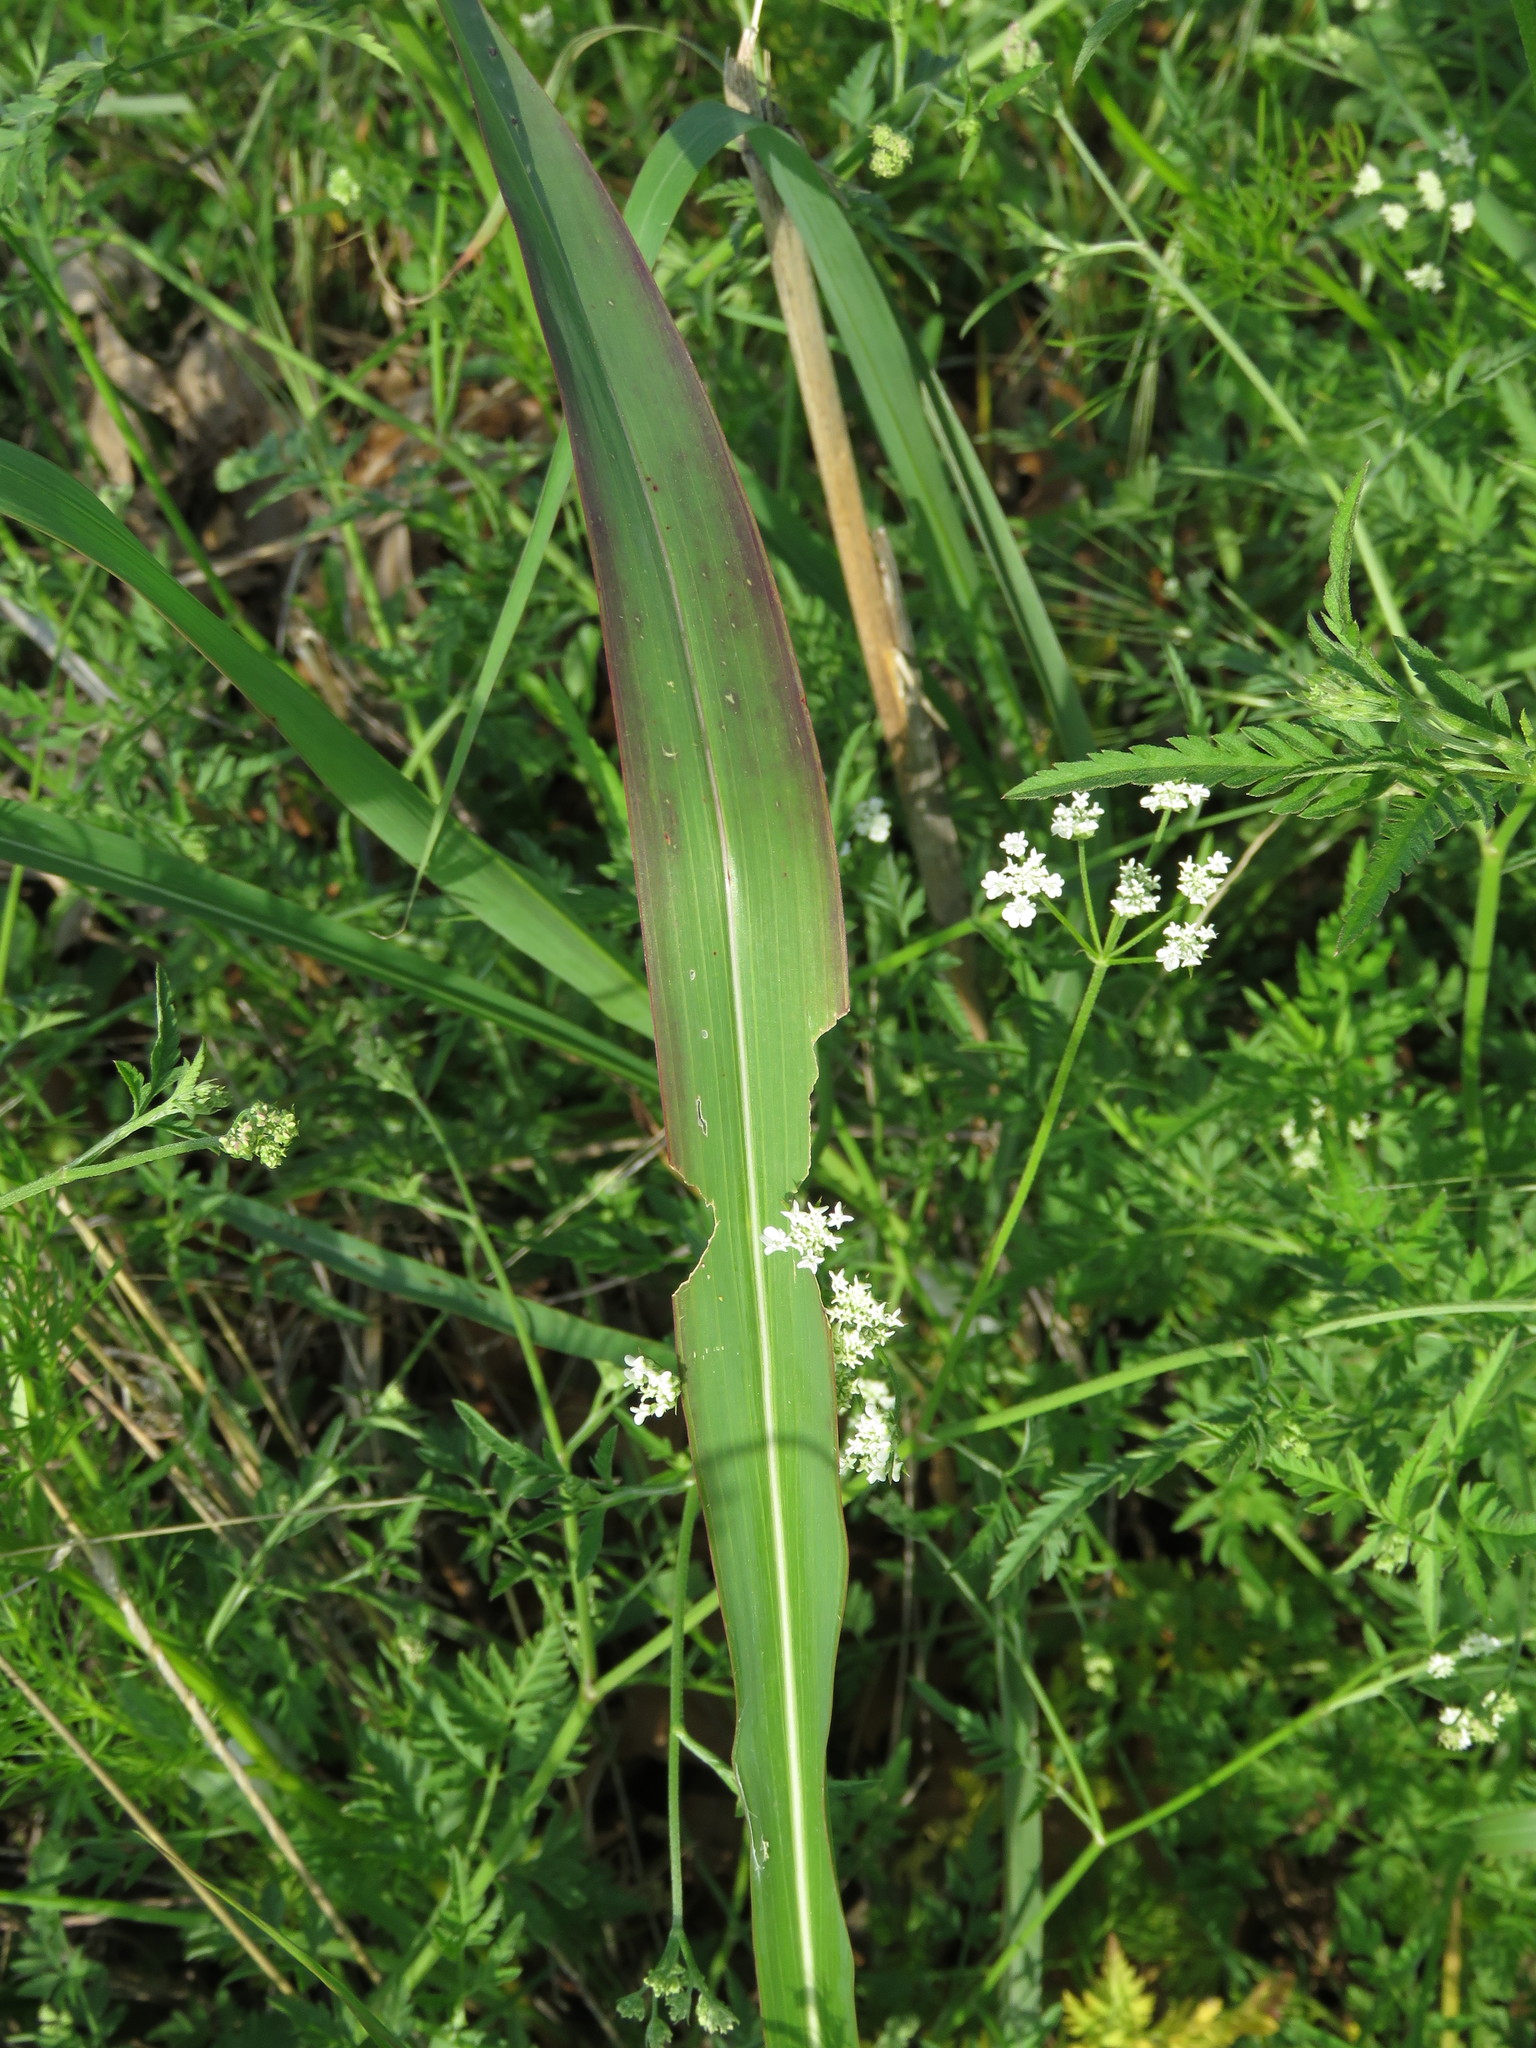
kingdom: Plantae
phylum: Tracheophyta
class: Liliopsida
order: Poales
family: Poaceae
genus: Sorghum
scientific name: Sorghum halepense
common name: Johnson-grass
